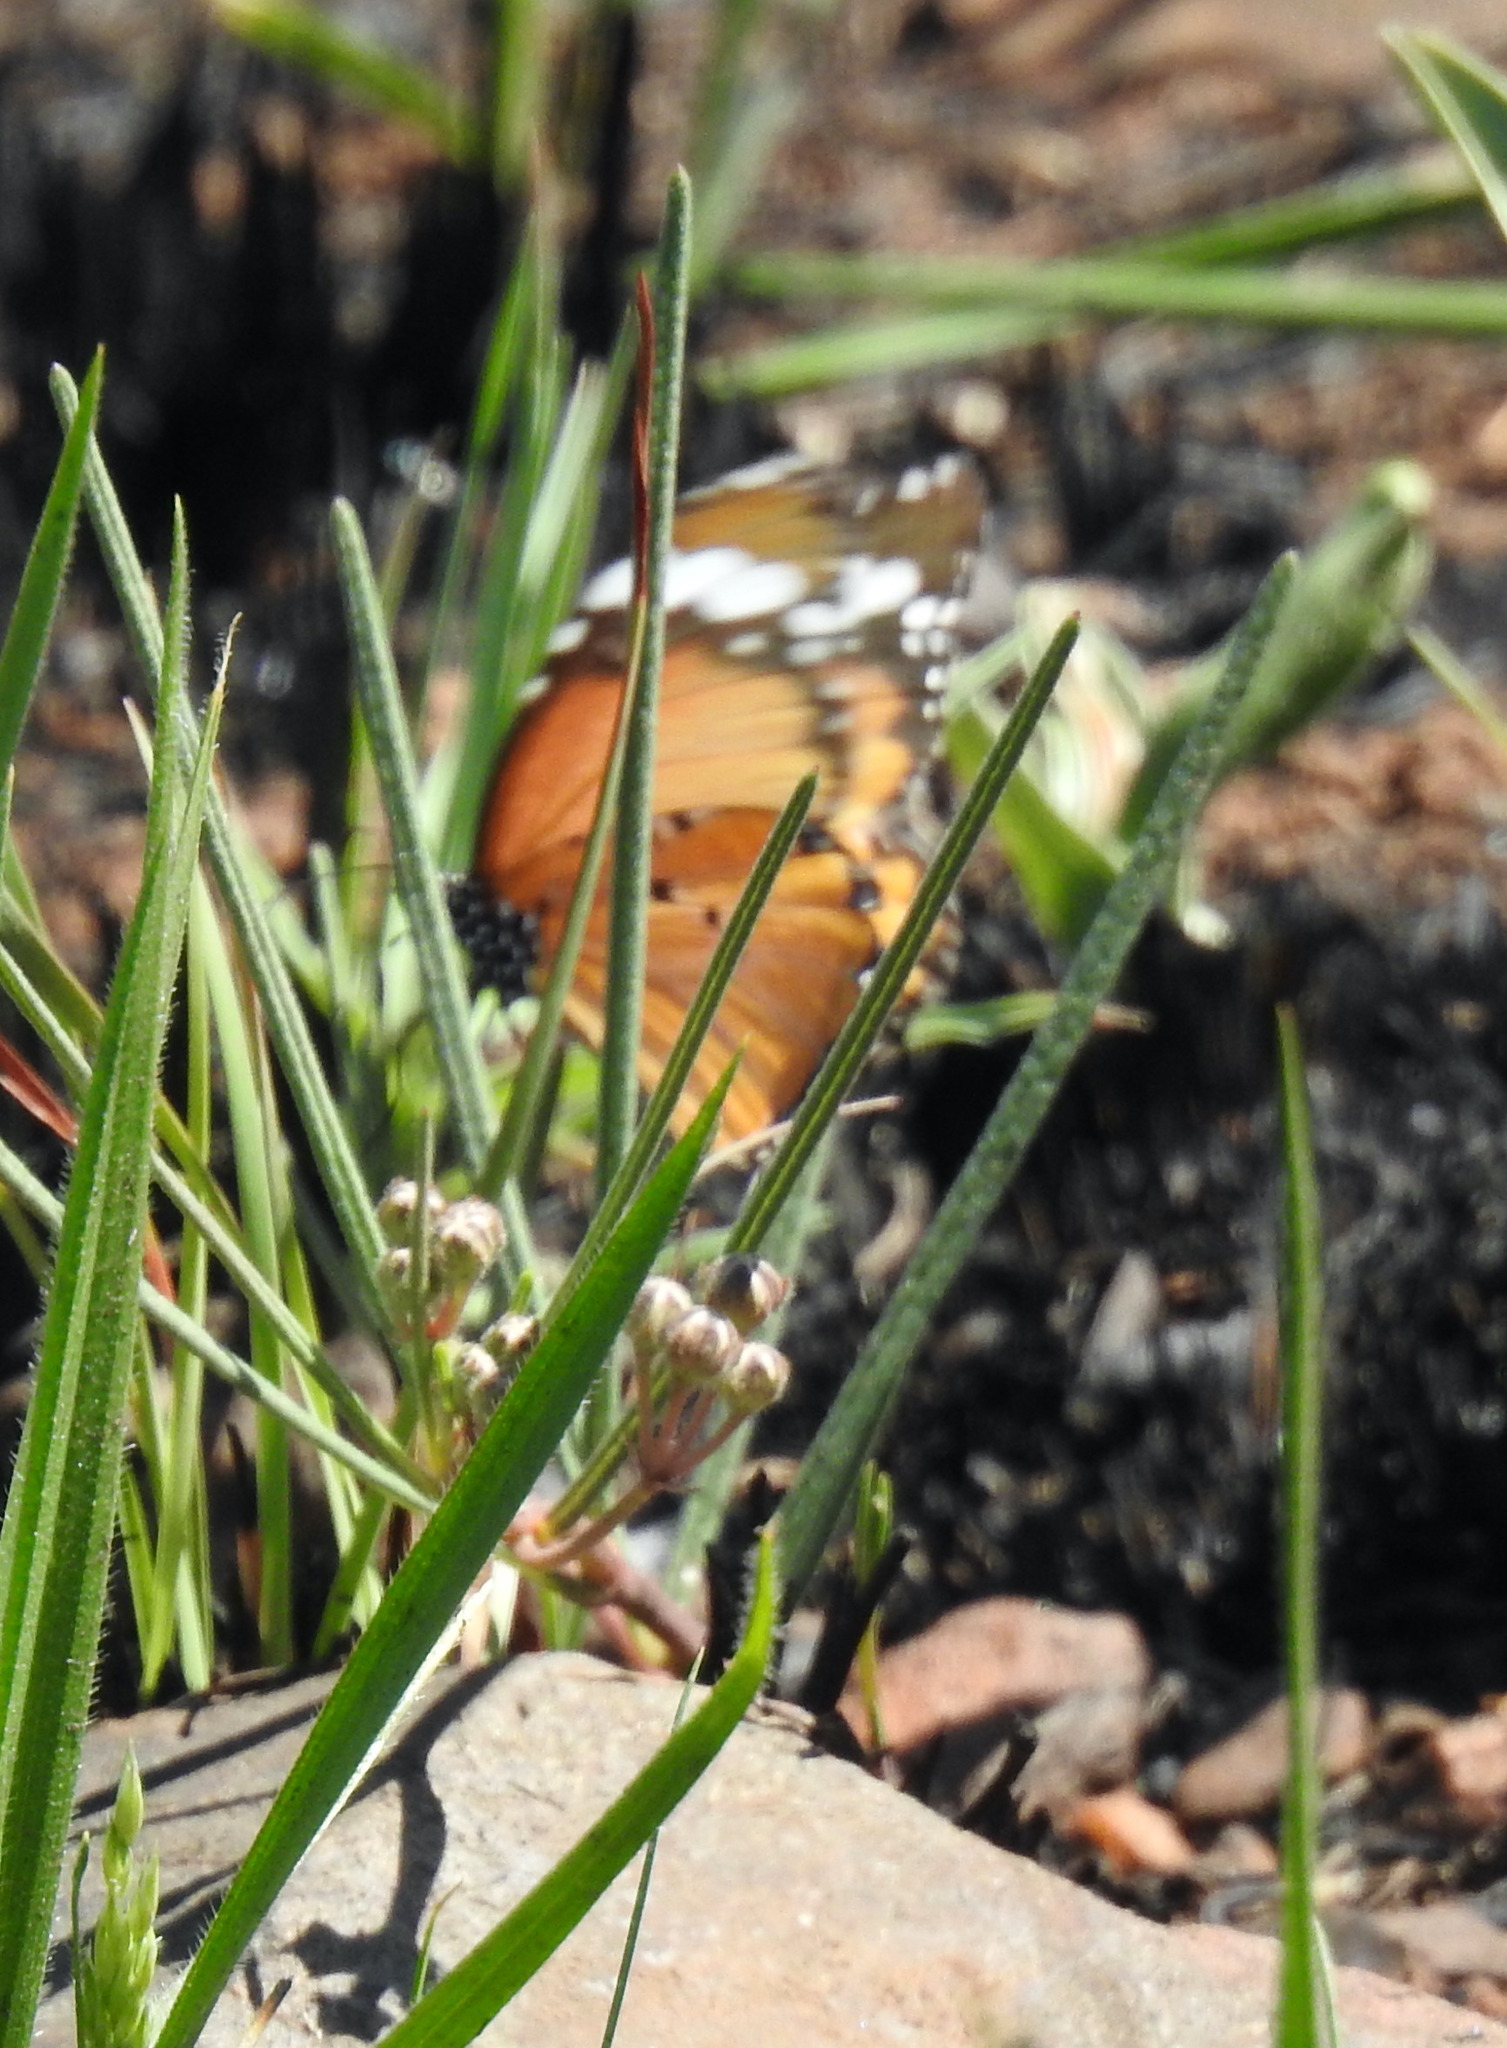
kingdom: Animalia
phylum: Arthropoda
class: Insecta
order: Lepidoptera
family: Nymphalidae
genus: Danaus
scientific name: Danaus chrysippus
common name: Plain tiger
